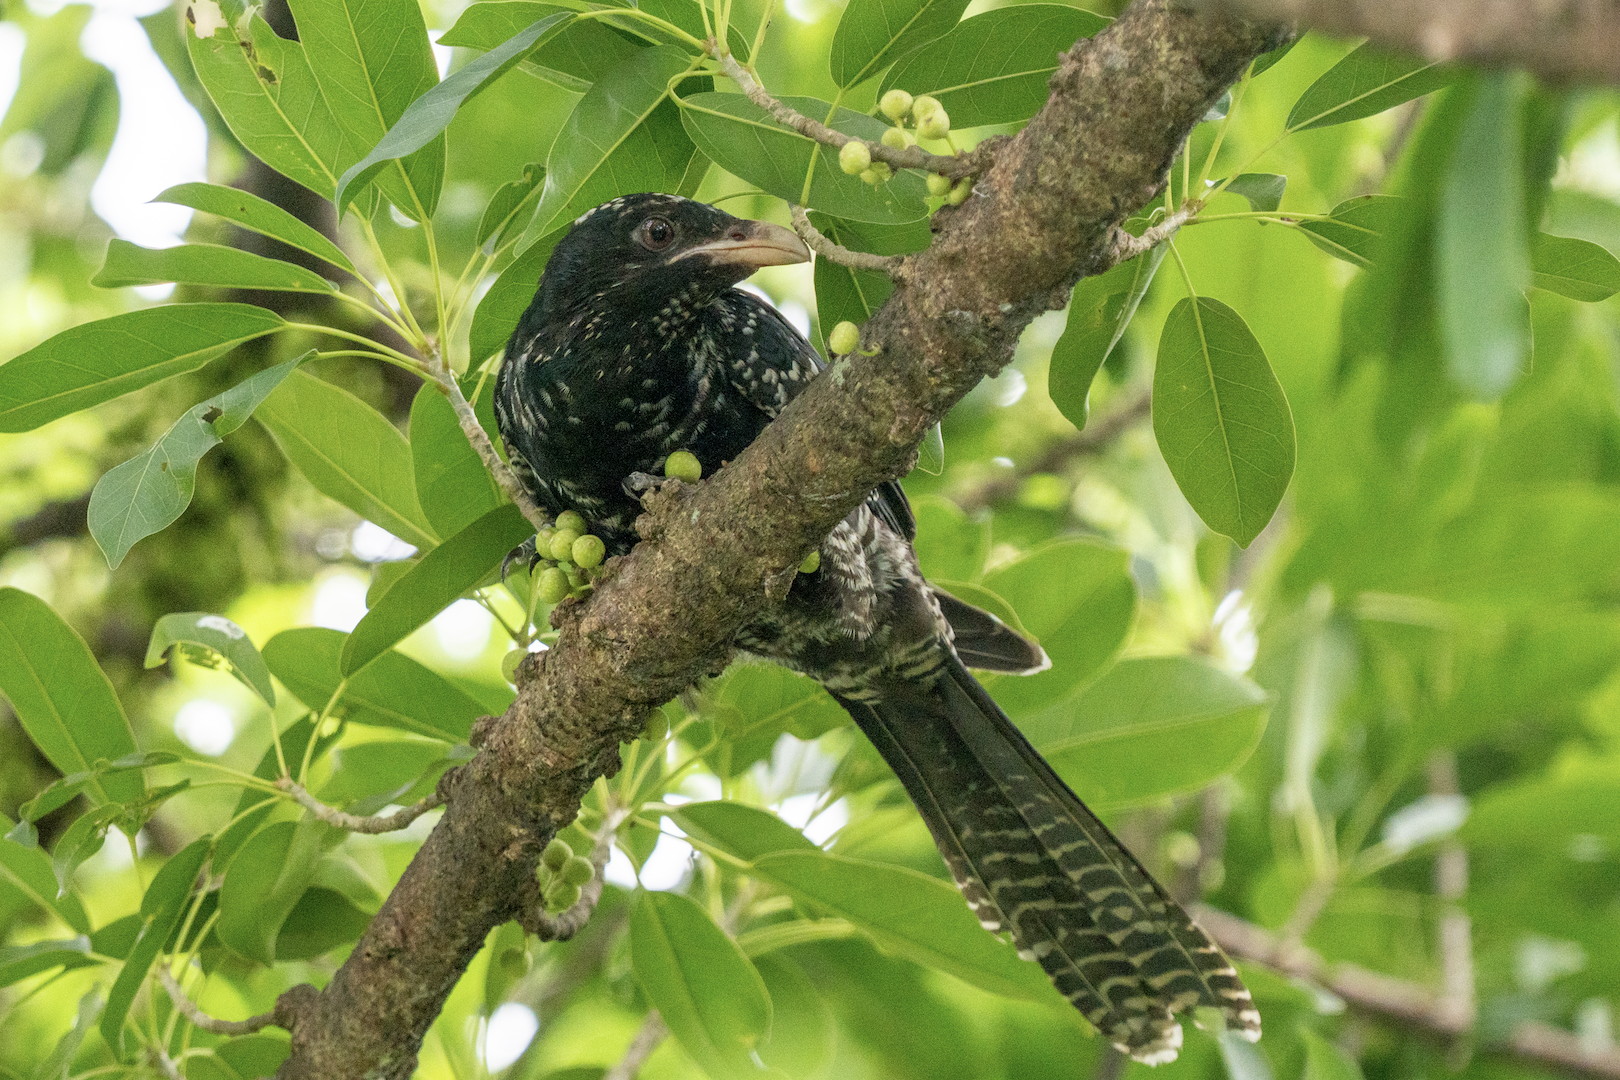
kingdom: Animalia
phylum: Chordata
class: Aves
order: Cuculiformes
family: Cuculidae
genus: Eudynamys
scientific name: Eudynamys scolopaceus
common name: Asian koel
